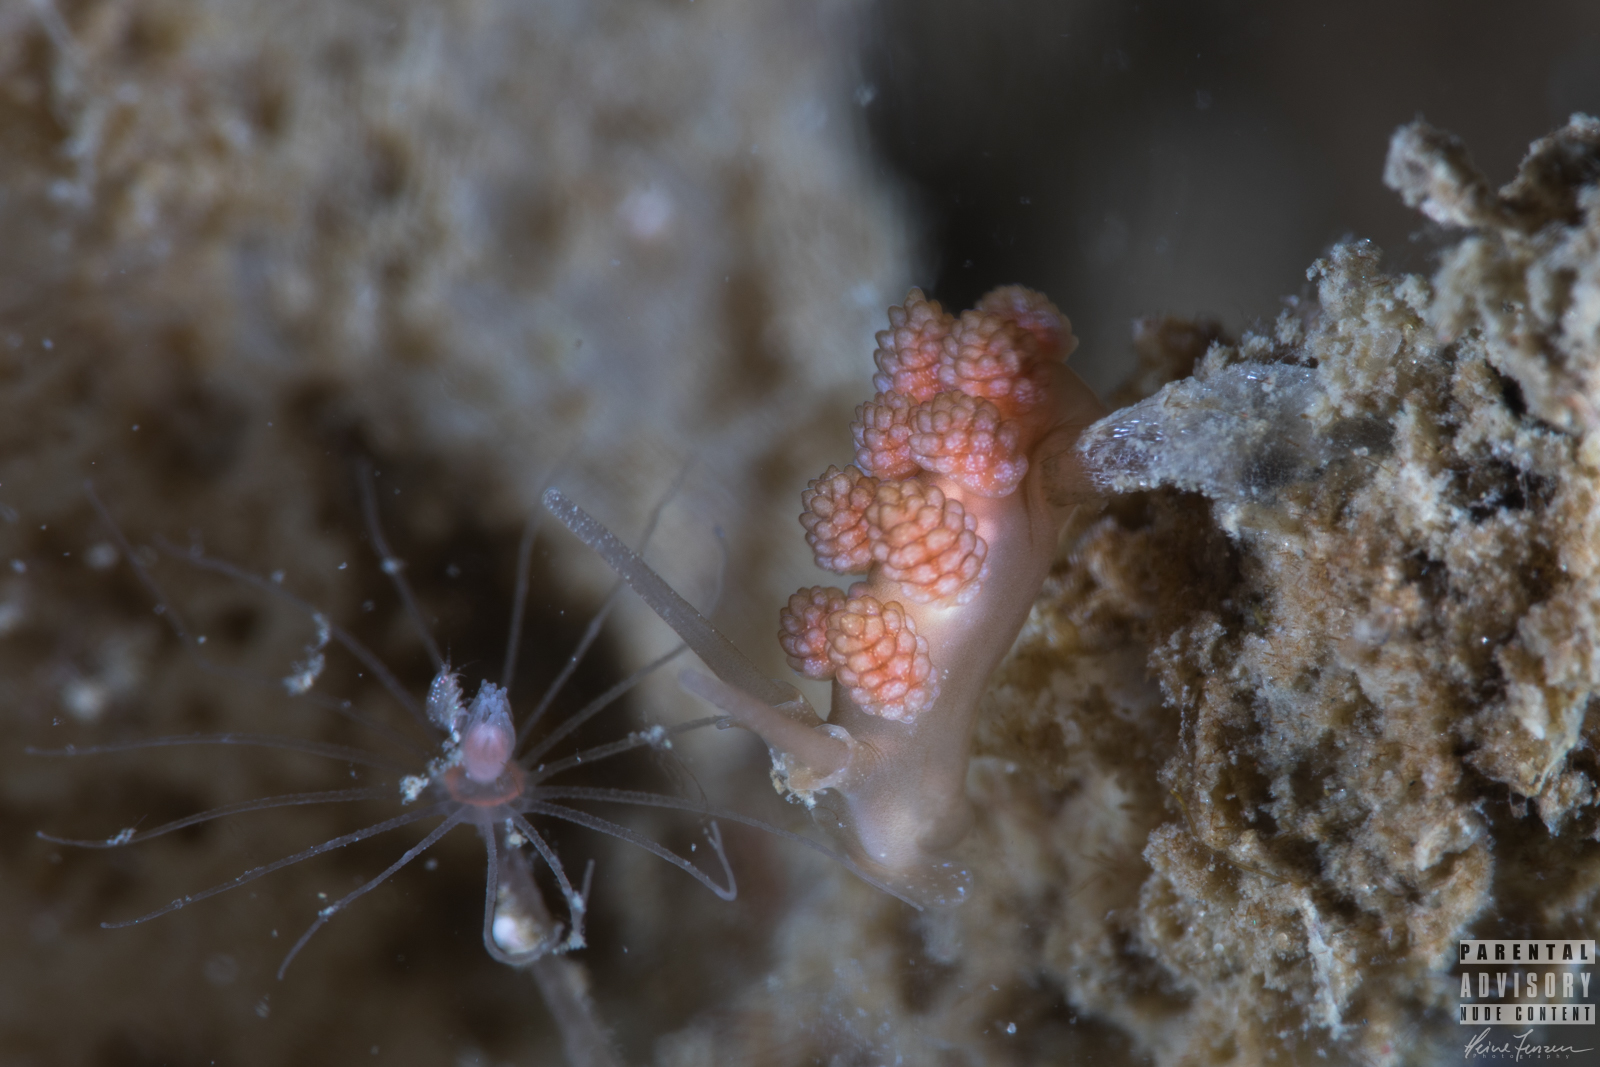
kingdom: Animalia
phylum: Mollusca
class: Gastropoda
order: Nudibranchia
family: Dotidae
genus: Doto
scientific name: Doto fragilis
